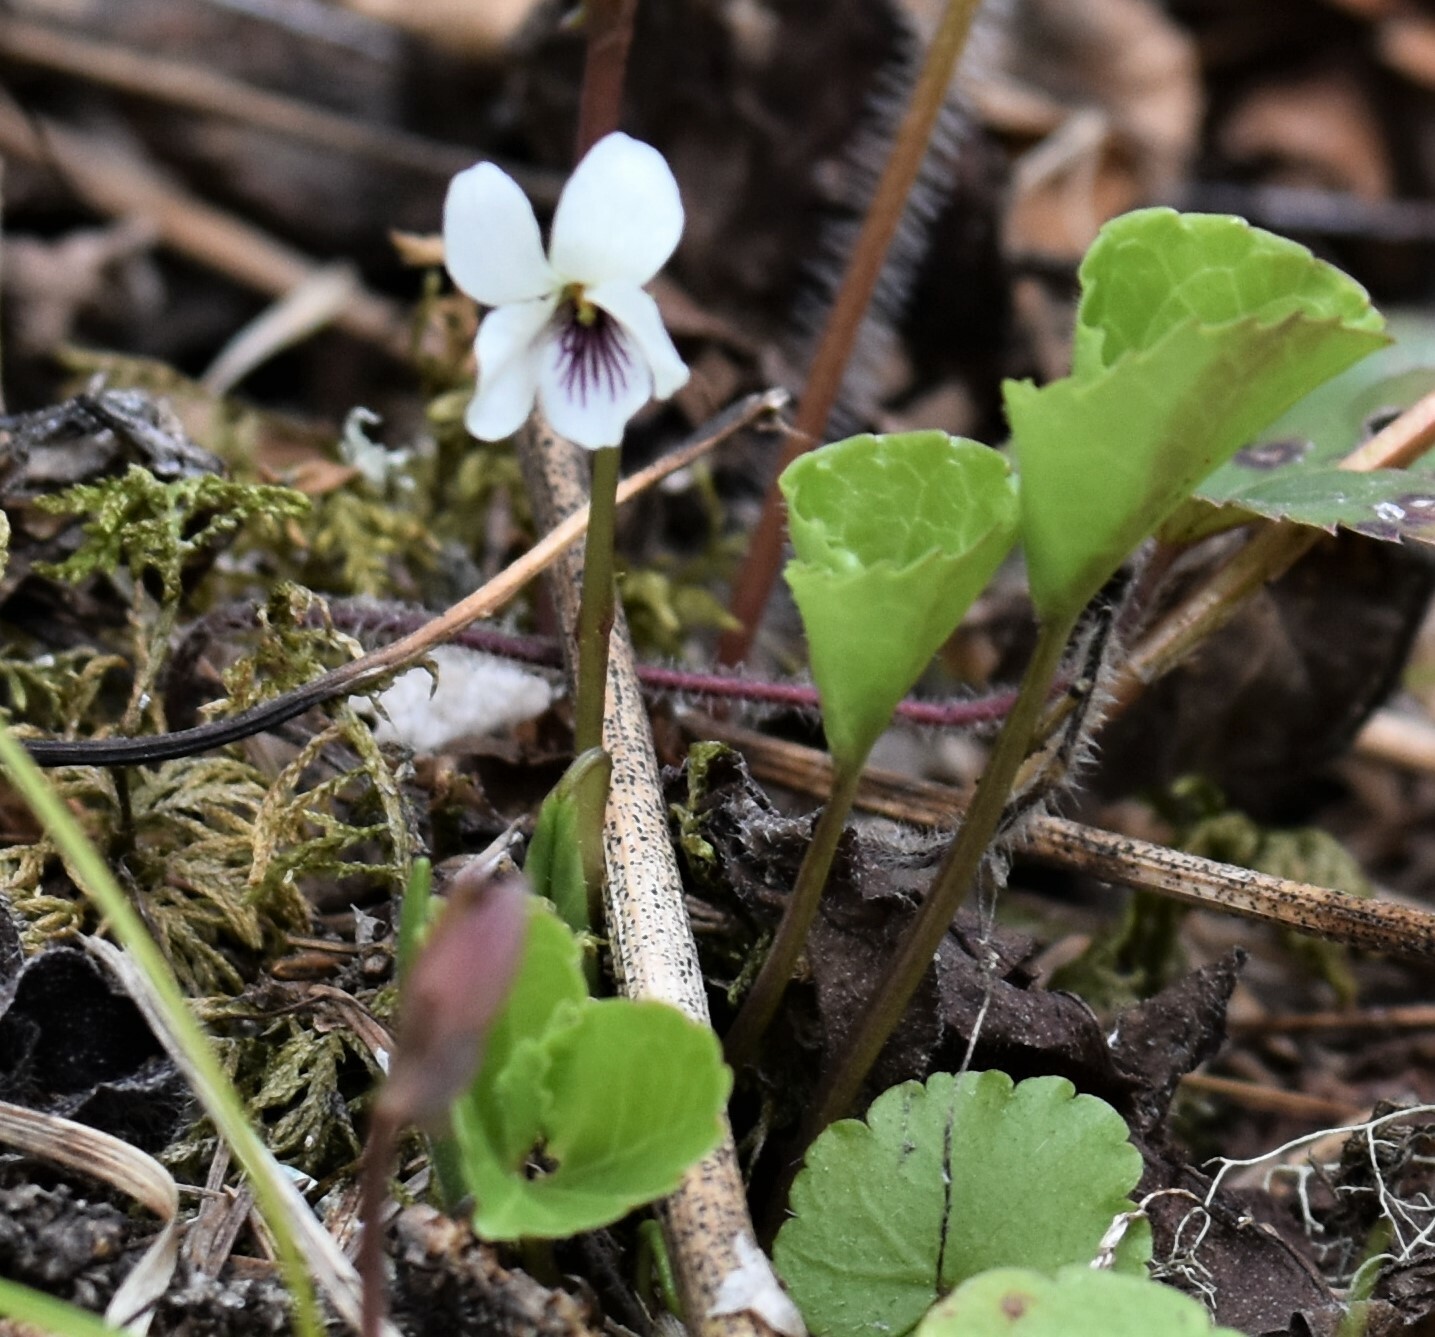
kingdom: Plantae
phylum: Tracheophyta
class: Magnoliopsida
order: Malpighiales
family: Violaceae
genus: Viola
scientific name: Viola renifolia
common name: Kidney-leaf violet
